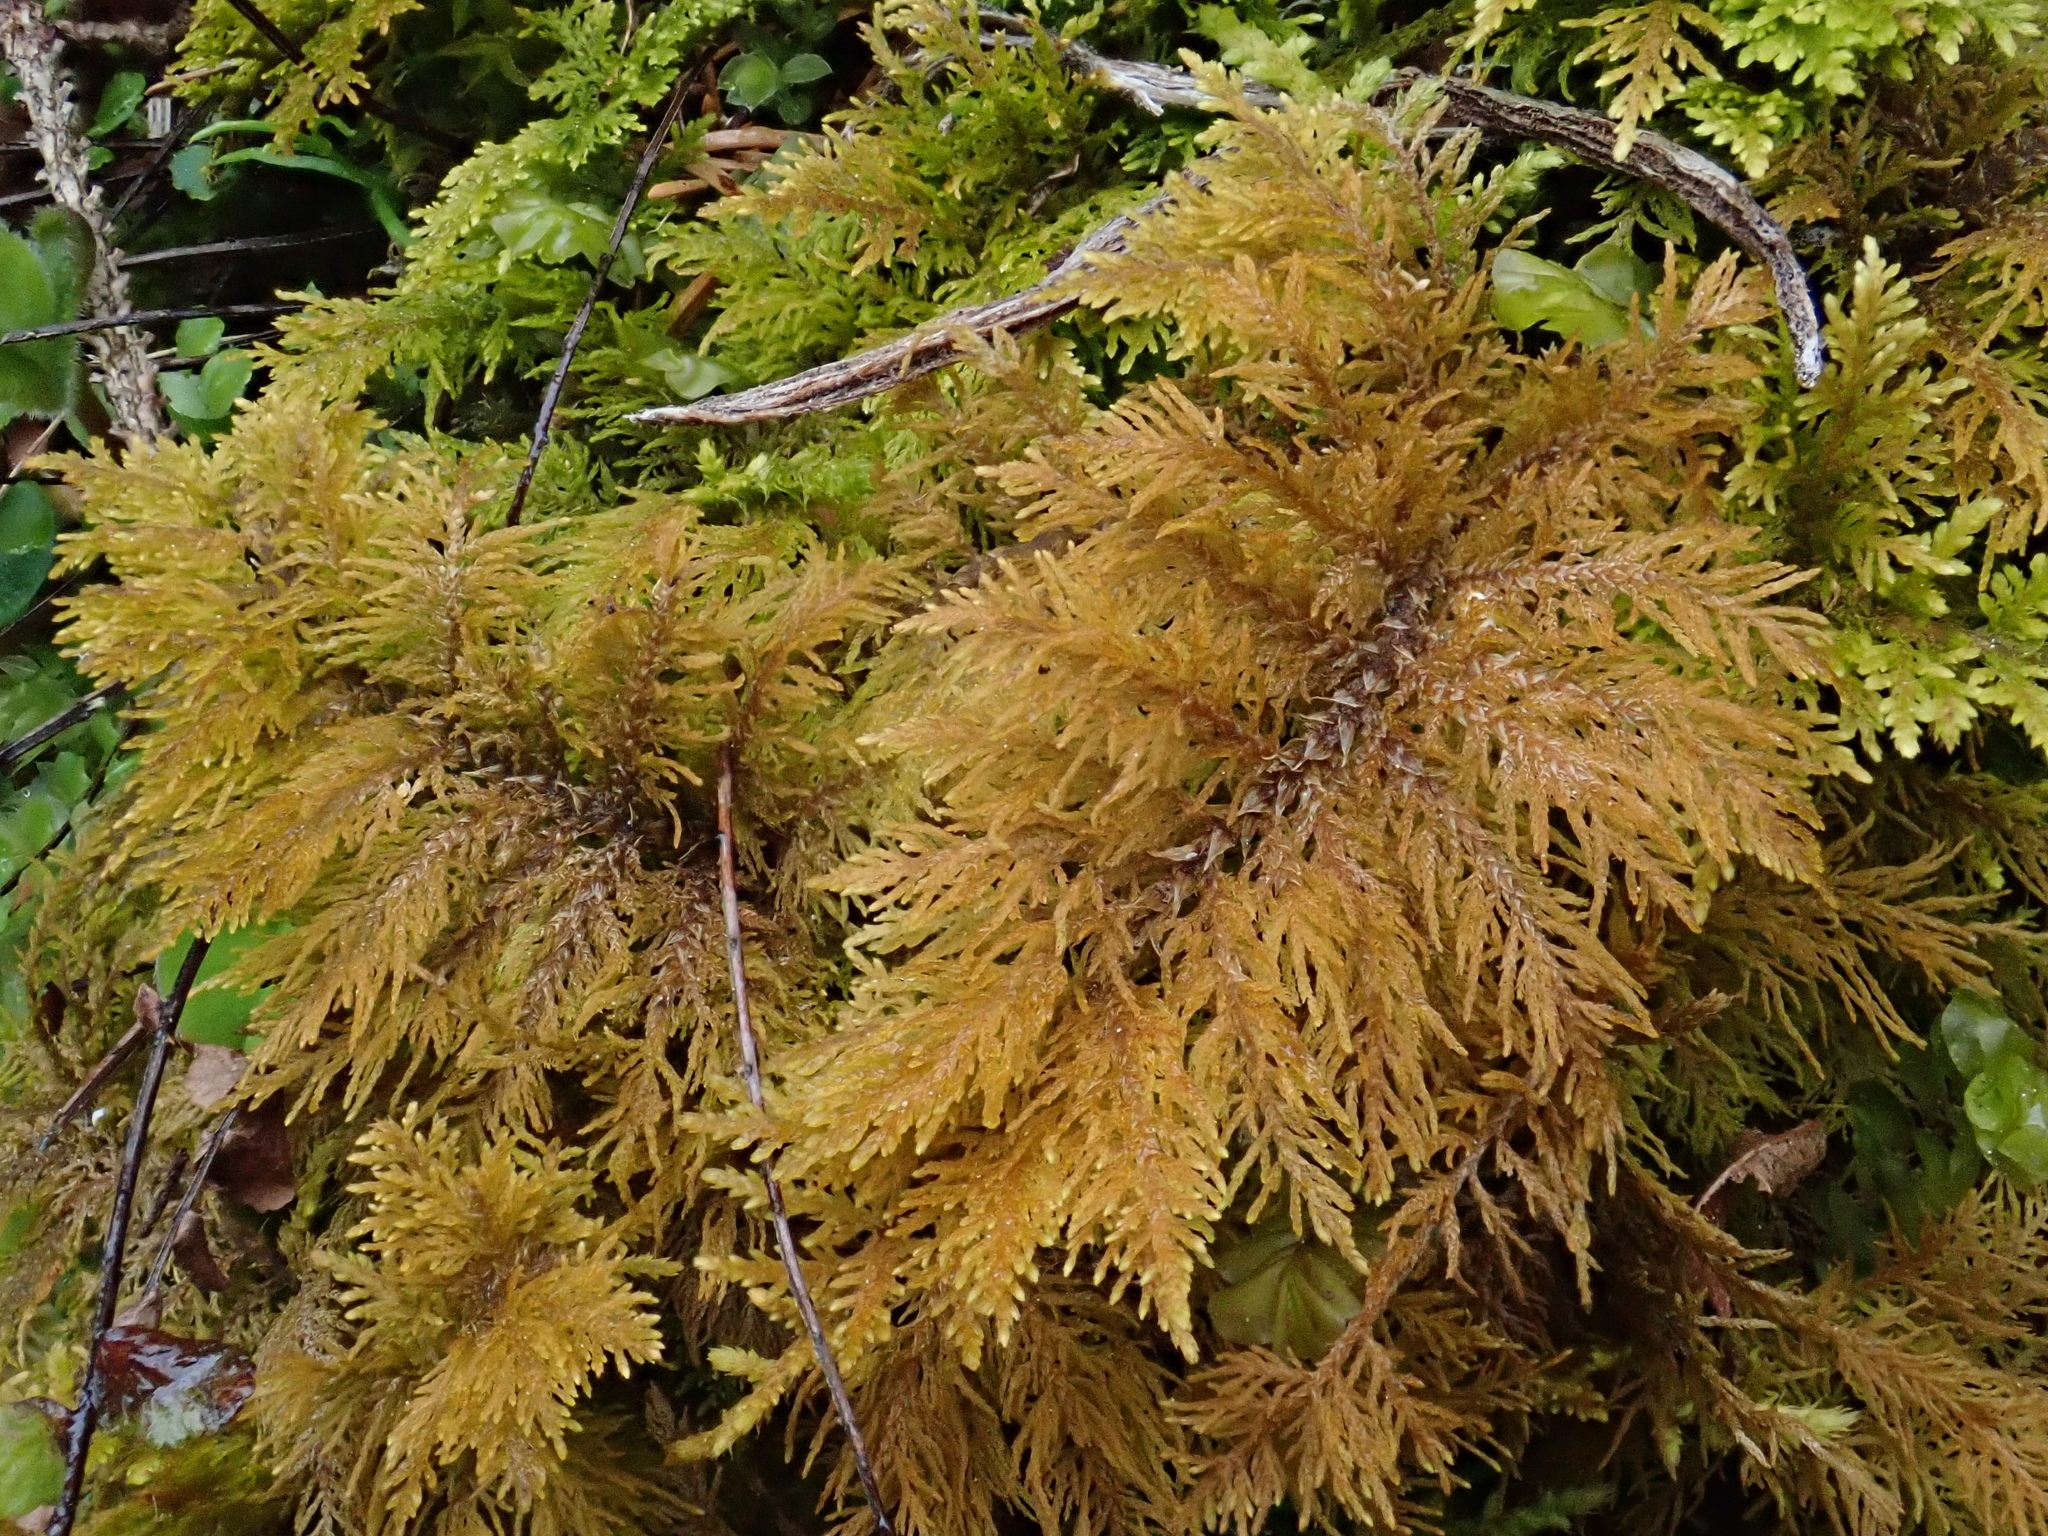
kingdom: Plantae
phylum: Bryophyta
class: Bryopsida
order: Hypnales
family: Thuidiaceae
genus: Thuidium
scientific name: Thuidium tamariscinum
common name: Common tamarisk-moss
